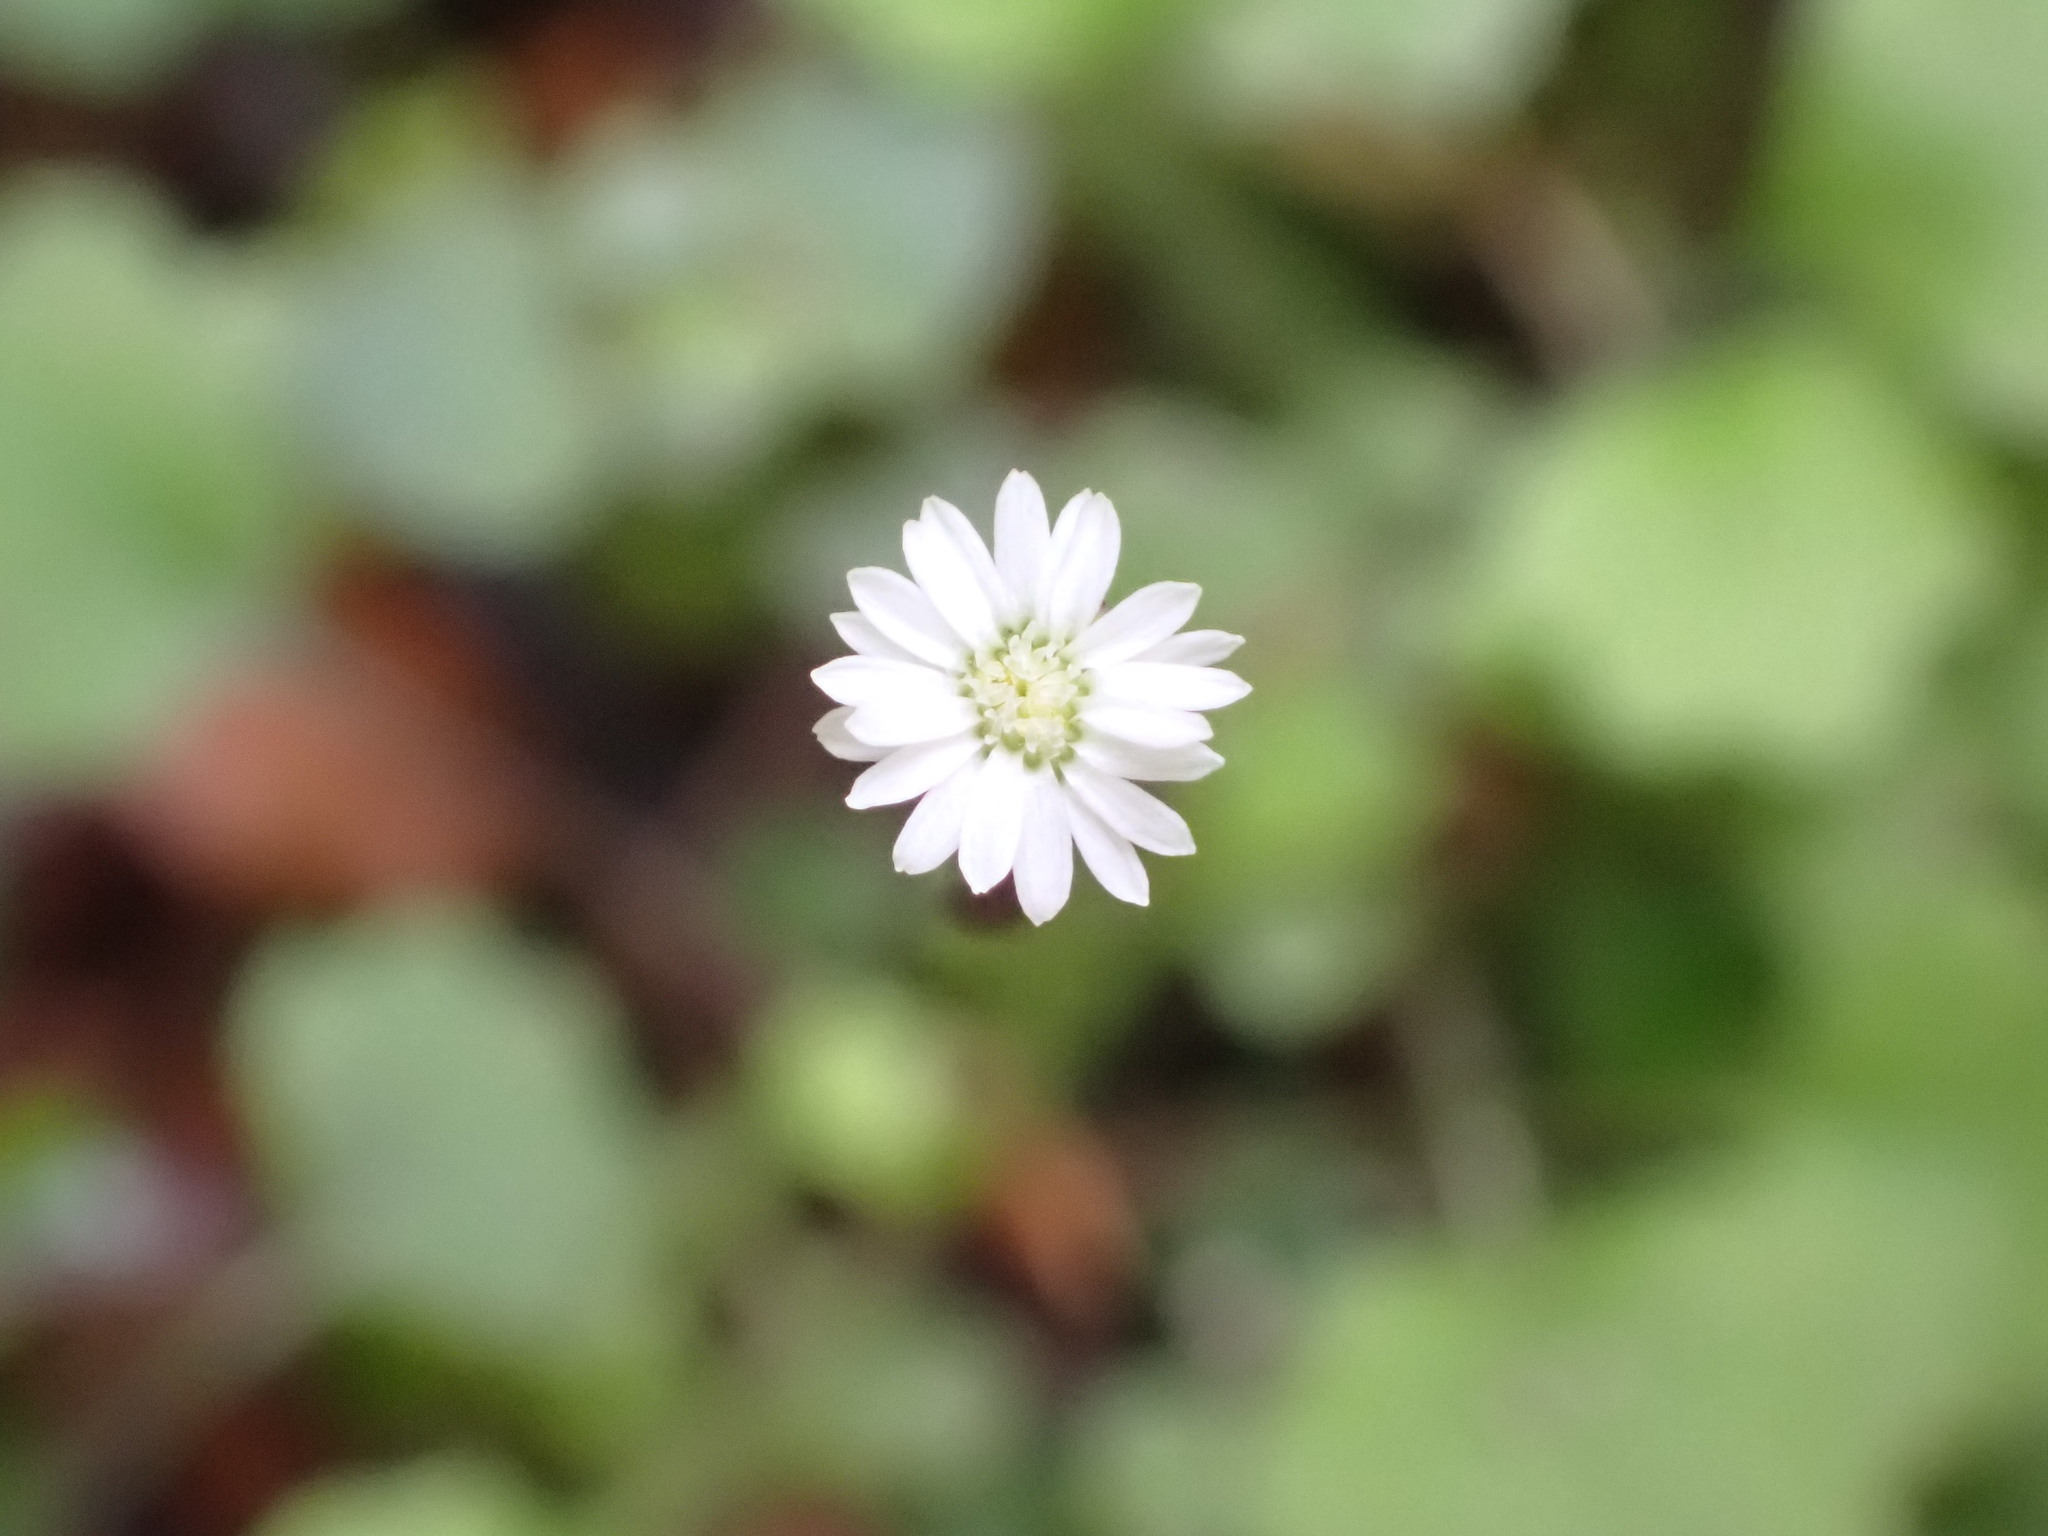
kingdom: Plantae
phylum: Tracheophyta
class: Magnoliopsida
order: Asterales
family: Asteraceae
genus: Lagenophora
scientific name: Lagenophora strangulata
